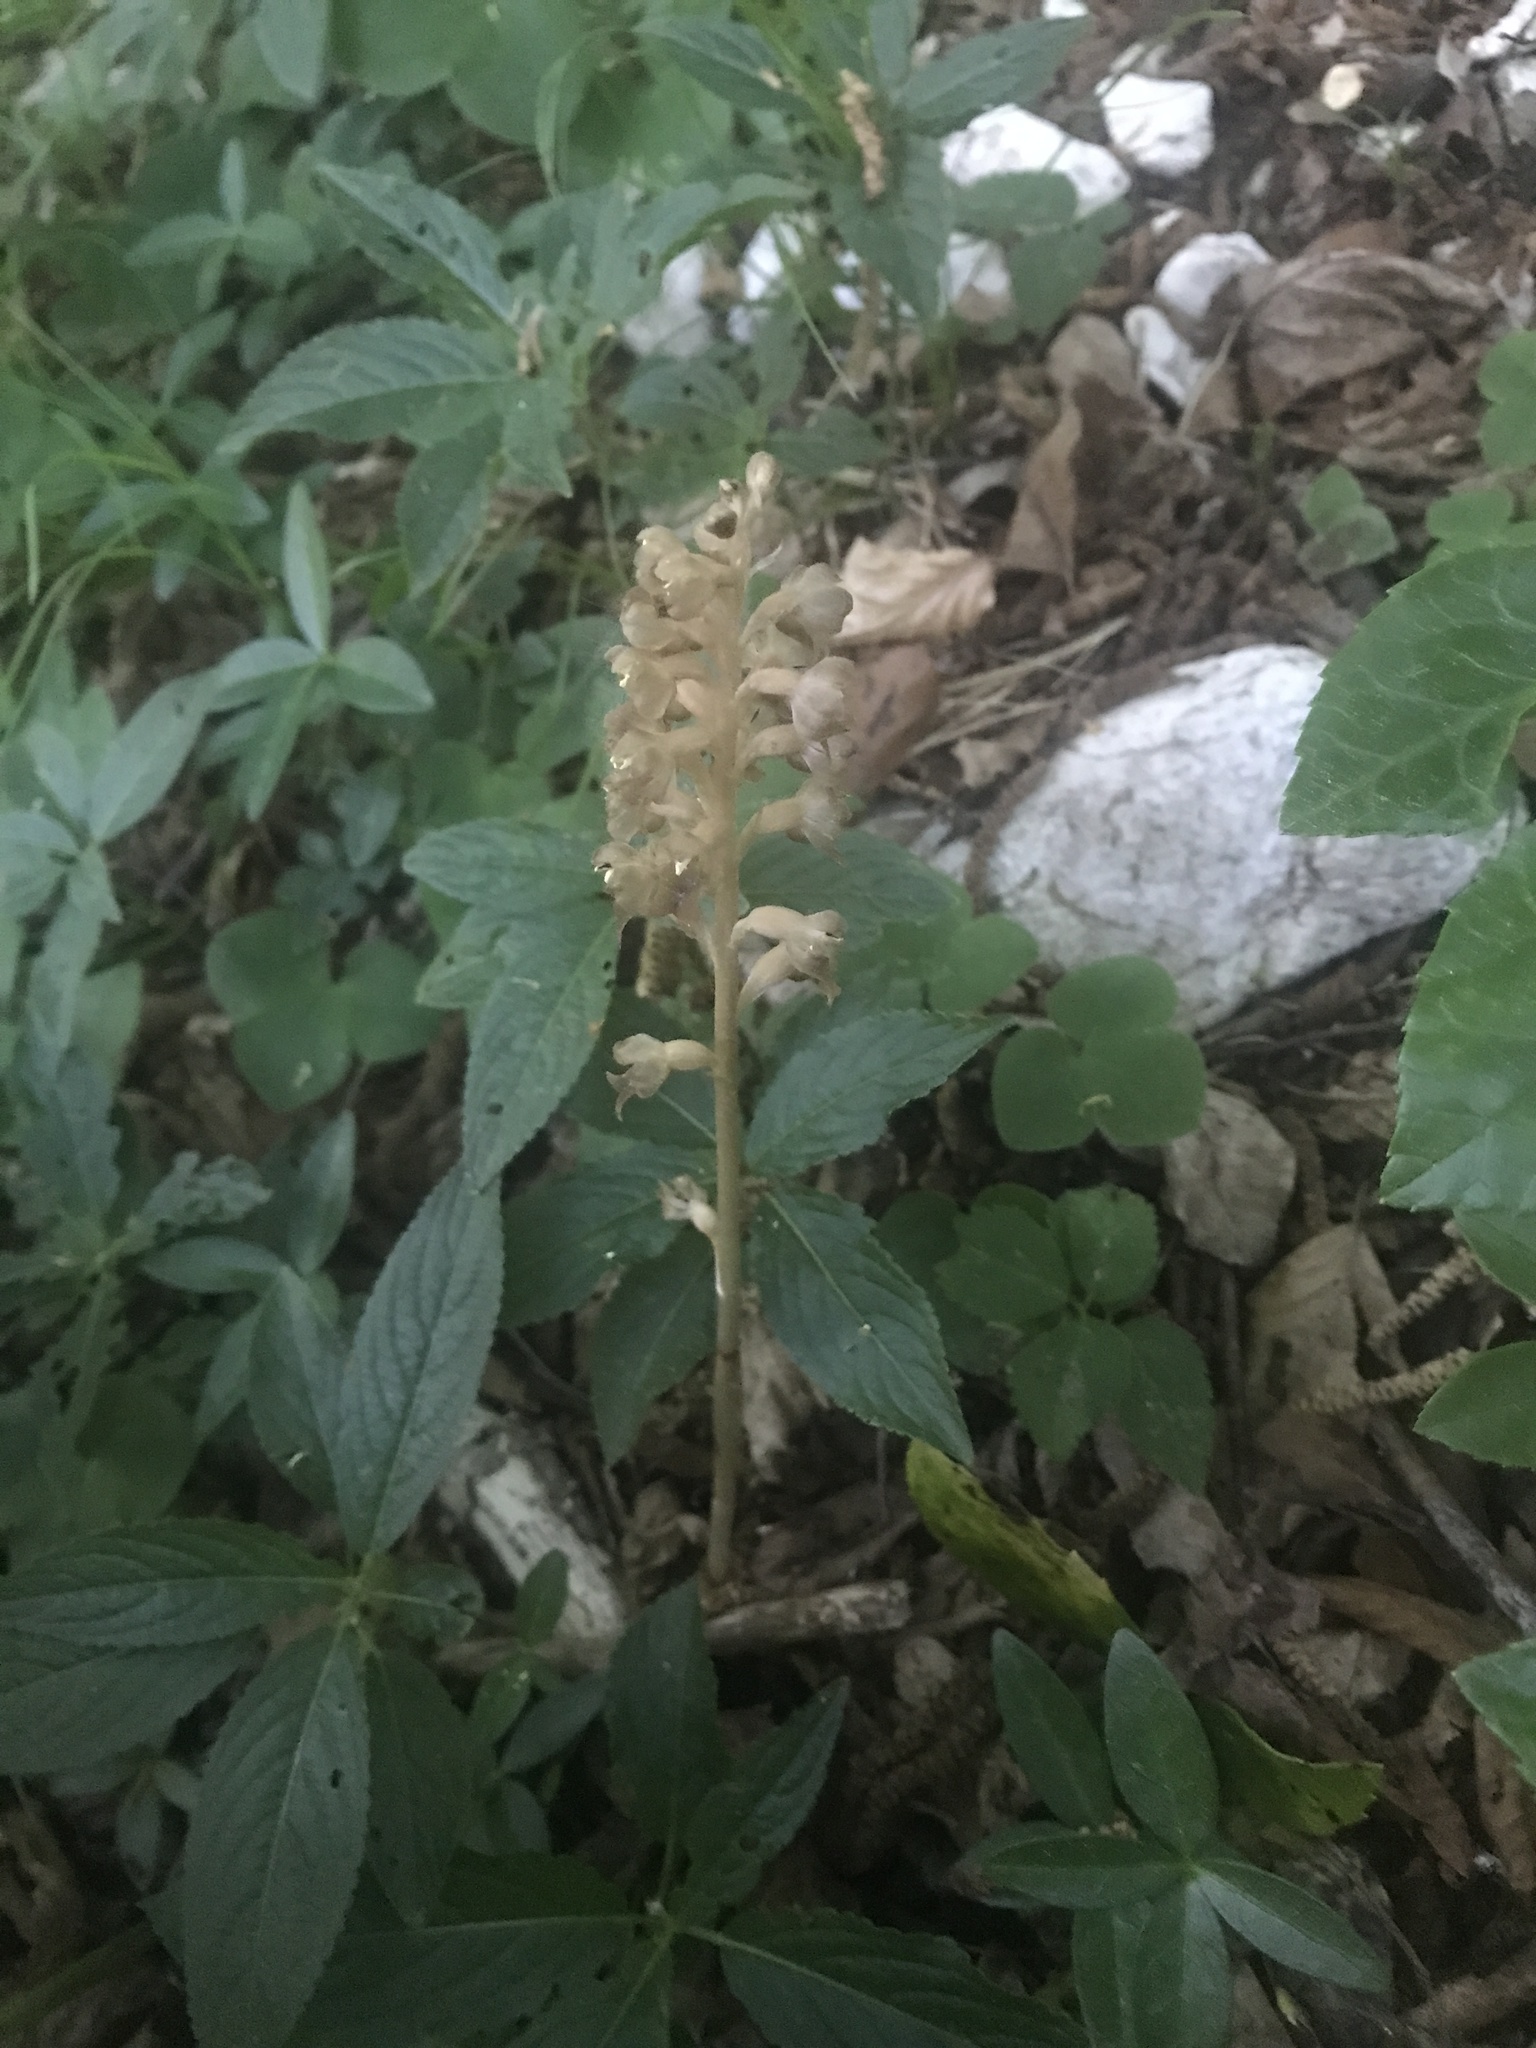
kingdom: Plantae
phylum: Tracheophyta
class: Liliopsida
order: Asparagales
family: Orchidaceae
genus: Neottia
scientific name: Neottia nidus-avis
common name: Bird's-nest orchid
